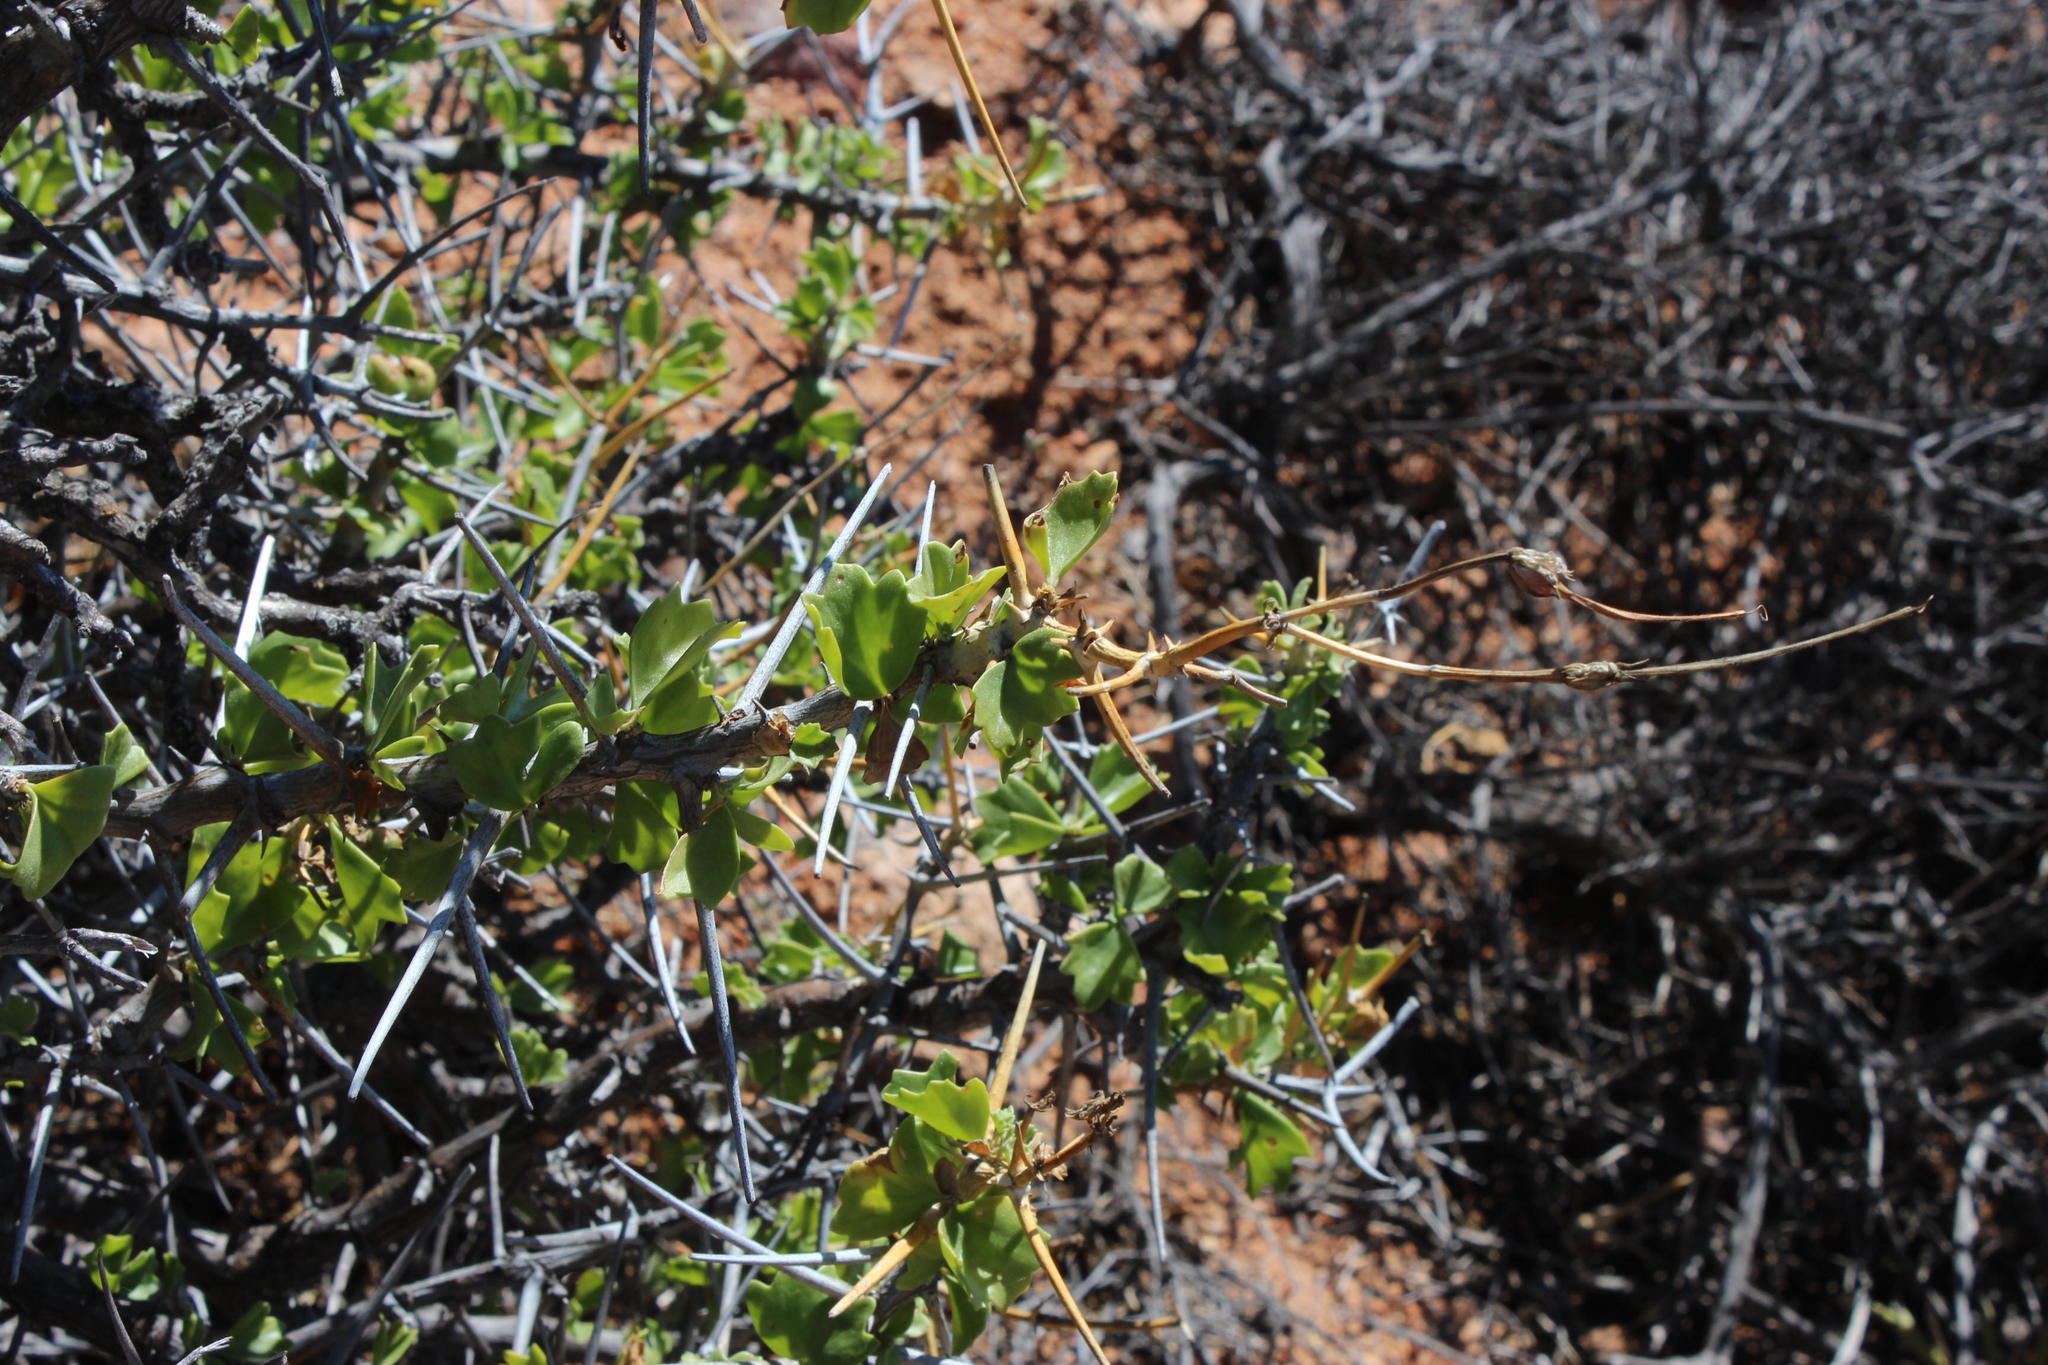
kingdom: Plantae
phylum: Tracheophyta
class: Magnoliopsida
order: Geraniales
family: Geraniaceae
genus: Pelargonium
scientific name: Pelargonium spinosum
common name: Thorny pelargonium
